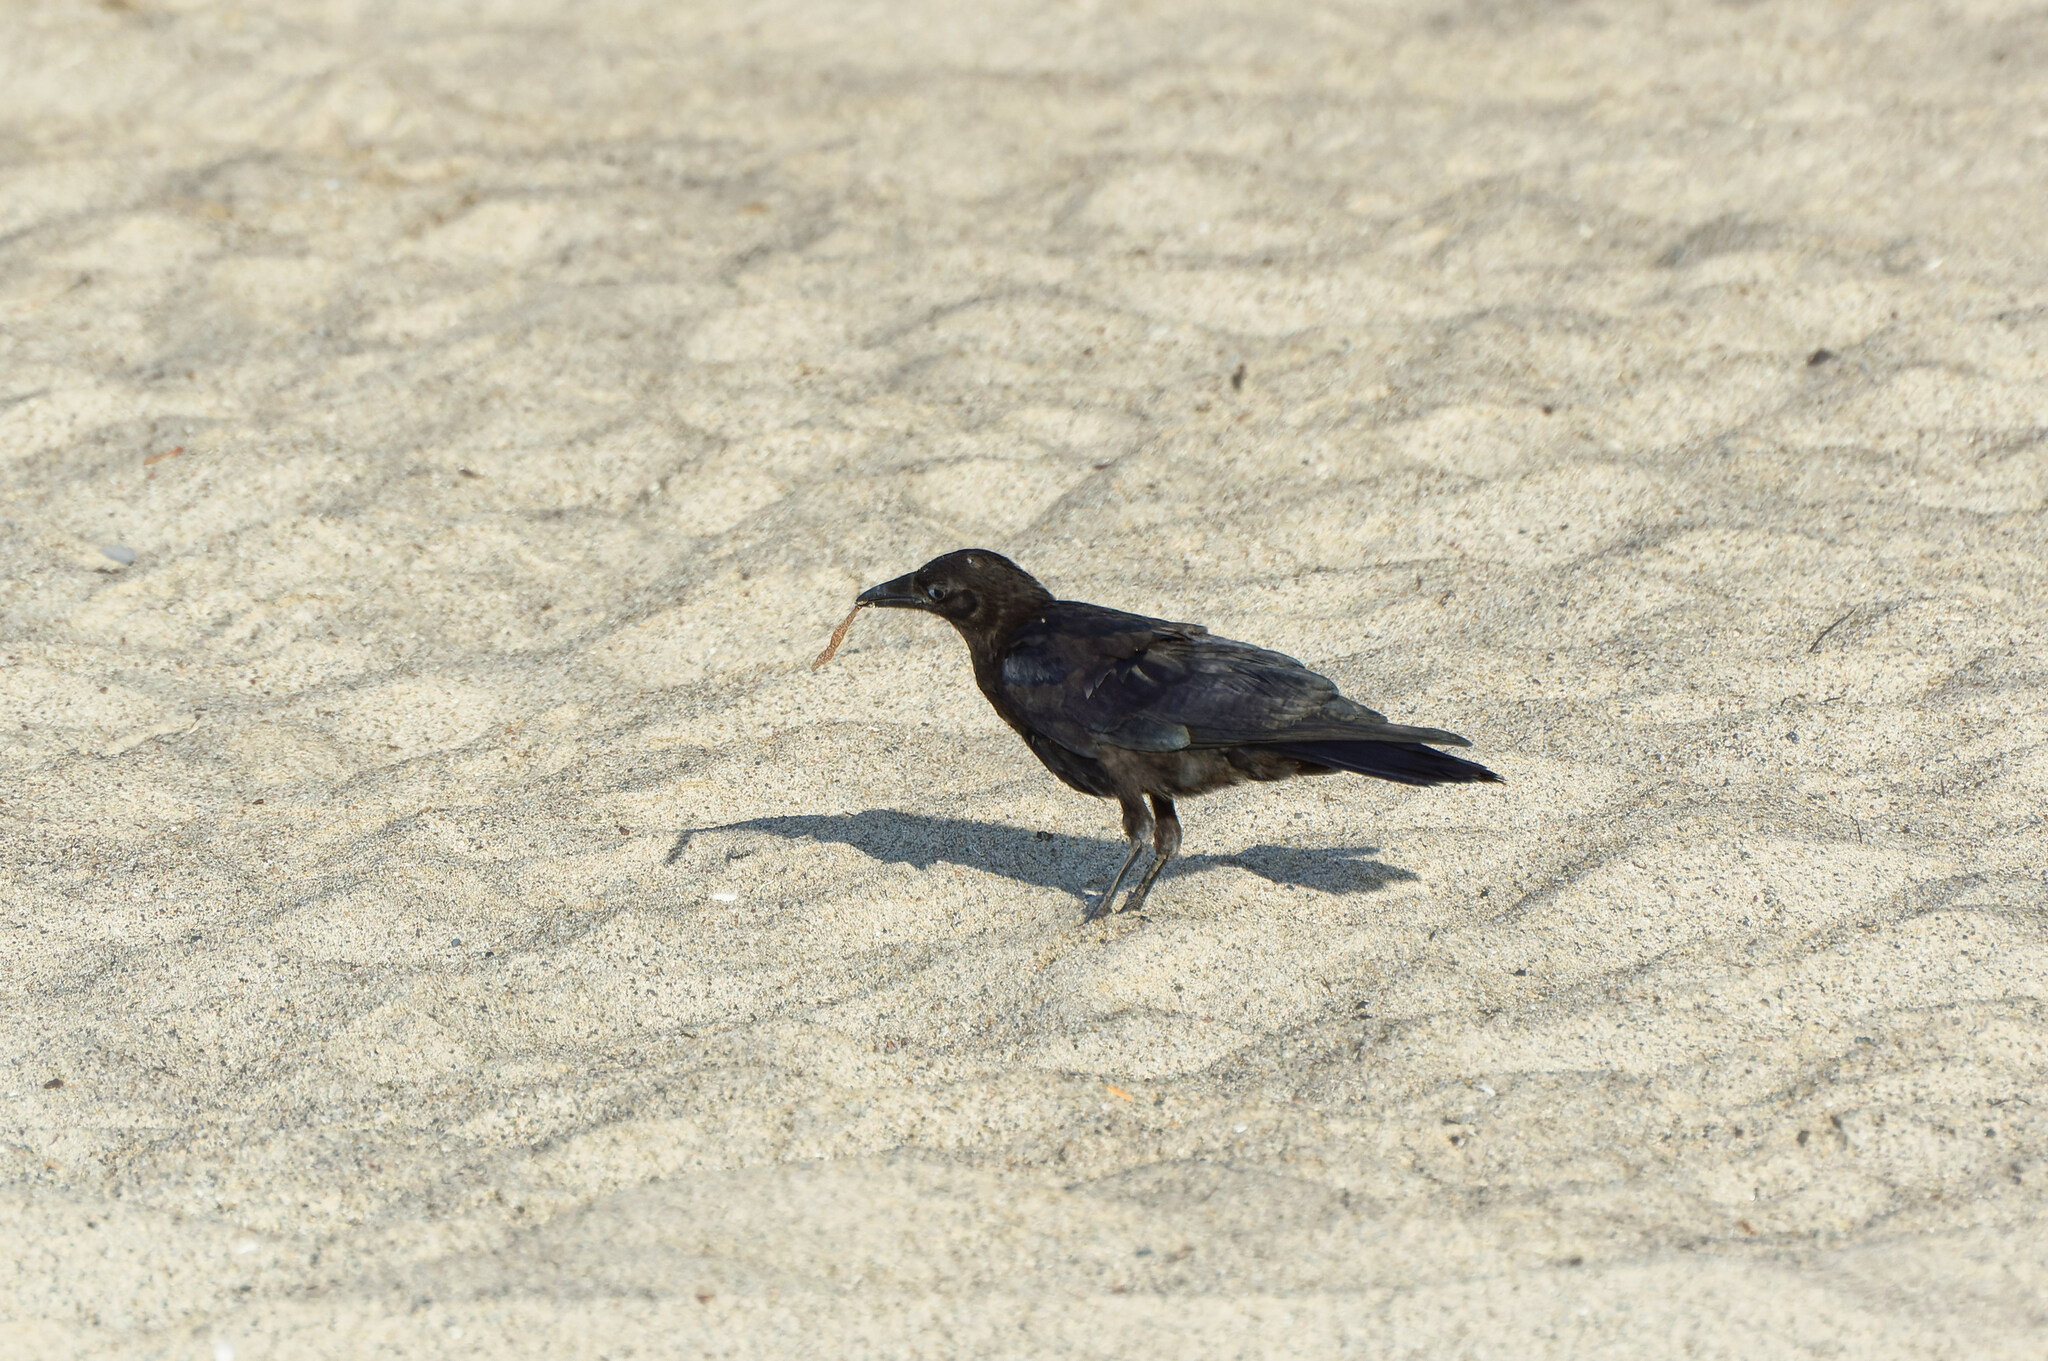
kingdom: Animalia
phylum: Chordata
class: Aves
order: Passeriformes
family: Corvidae
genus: Corvus
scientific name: Corvus brachyrhynchos
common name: American crow
